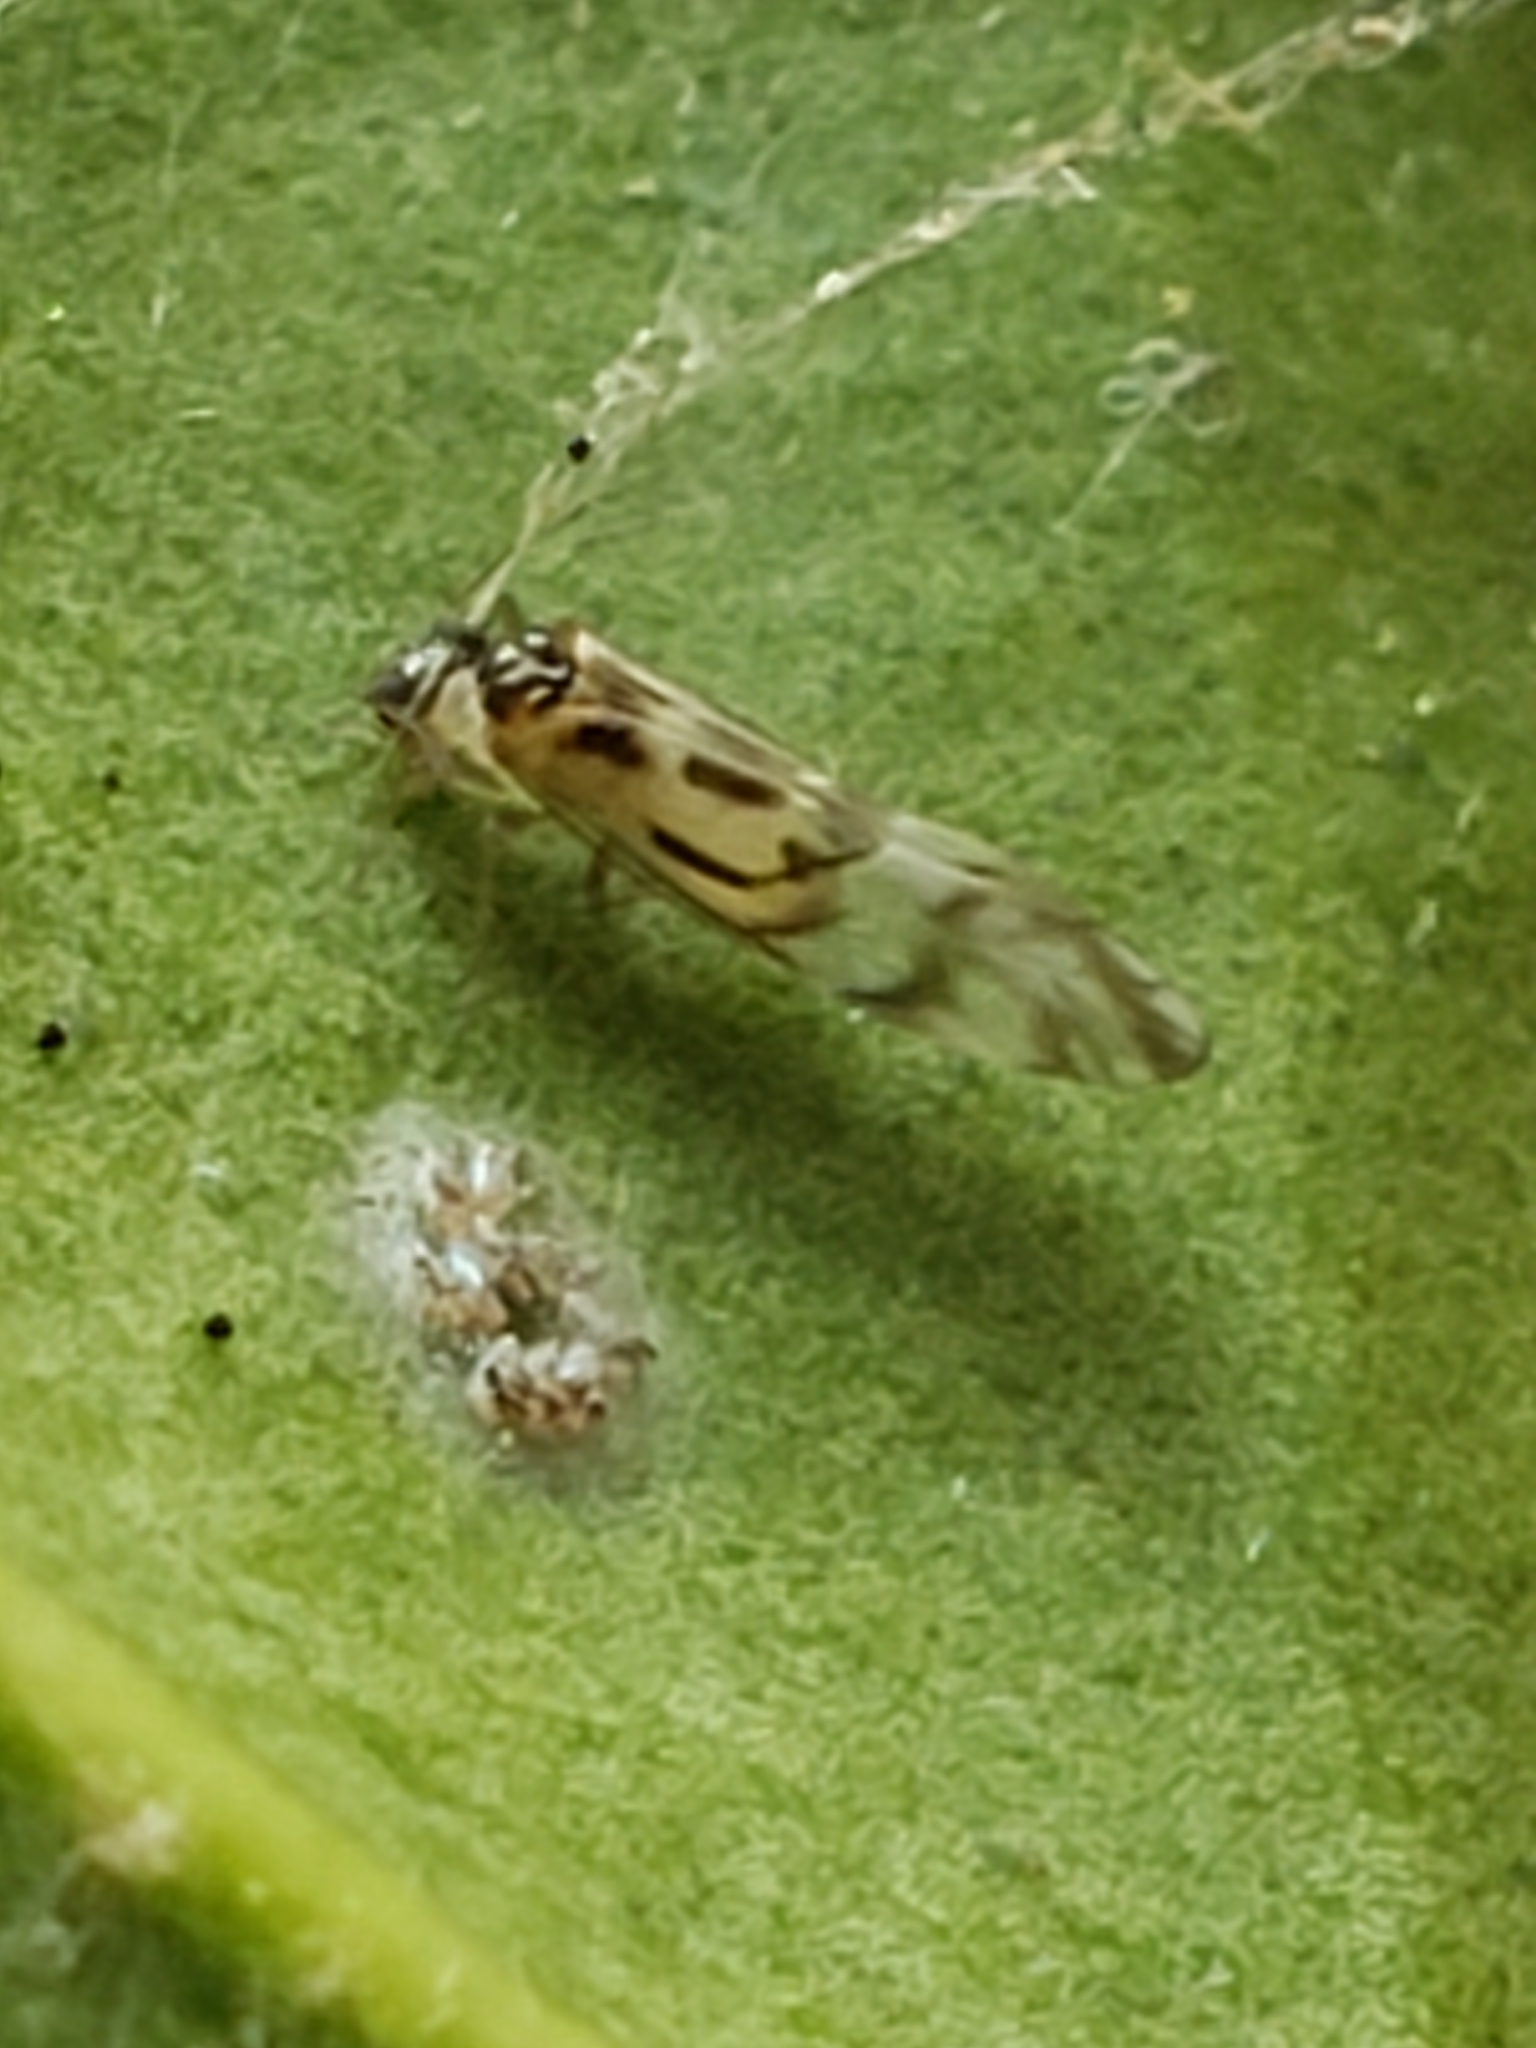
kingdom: Animalia
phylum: Arthropoda
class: Insecta
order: Psocodea
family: Stenopsocidae
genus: Graphopsocus
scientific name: Graphopsocus cruciatus
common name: Lizard bark louse
